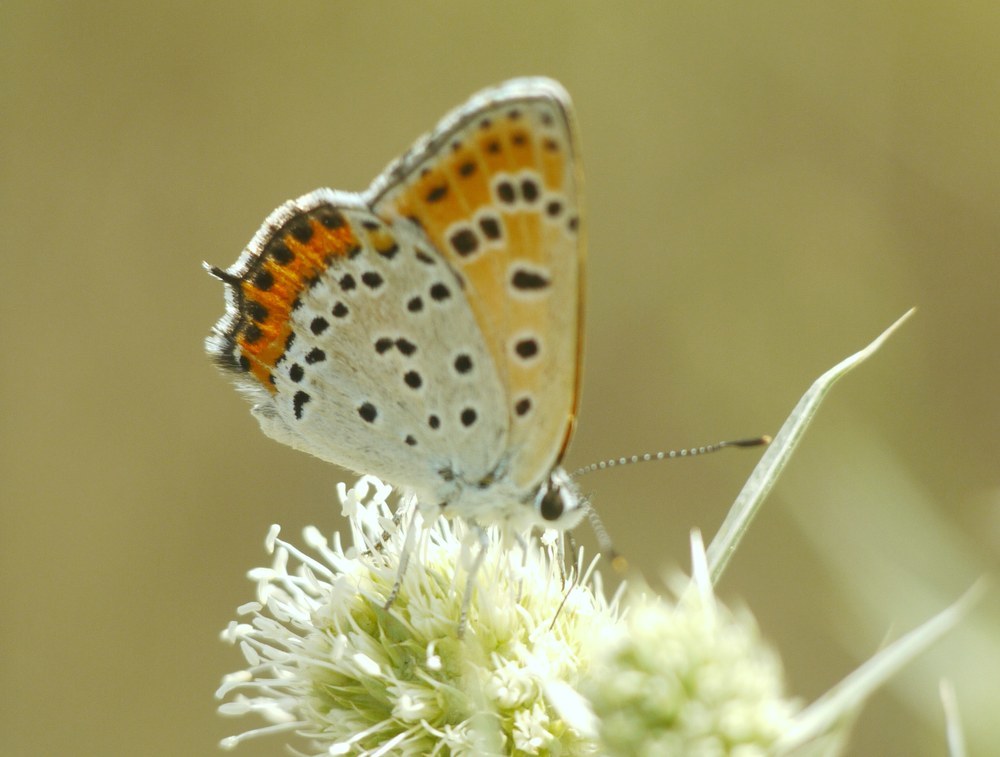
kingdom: Animalia
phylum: Arthropoda
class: Insecta
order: Lepidoptera
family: Lycaenidae
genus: Thersamonia
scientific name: Thersamonia thersamon
